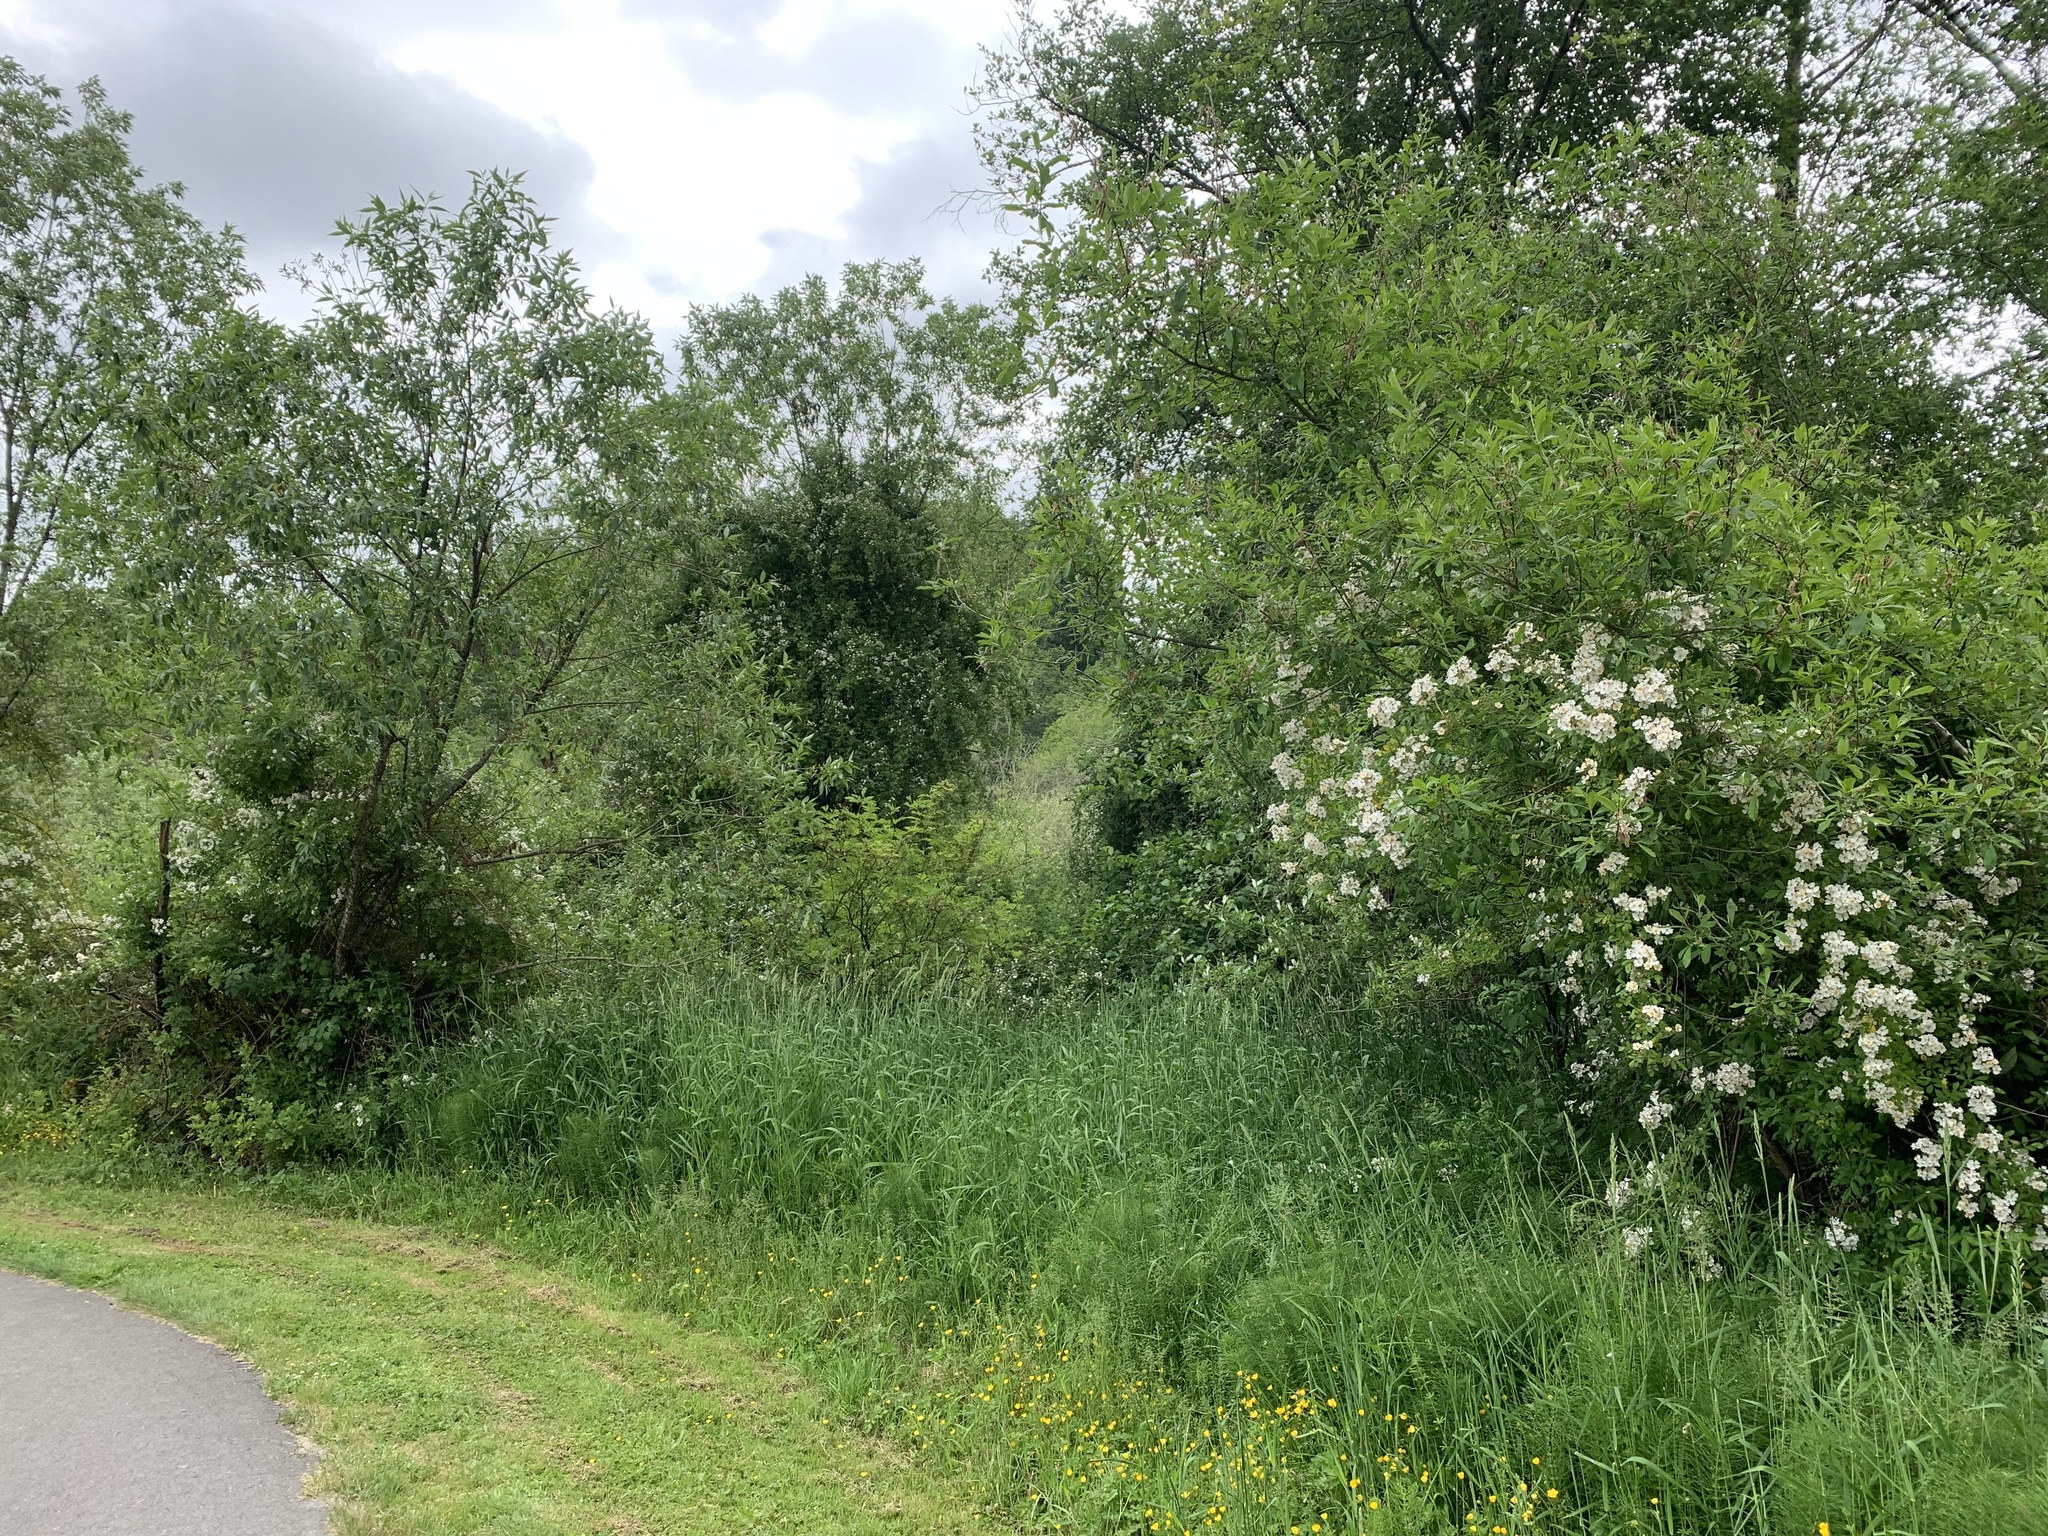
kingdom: Plantae
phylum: Tracheophyta
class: Magnoliopsida
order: Rosales
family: Rosaceae
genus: Rosa
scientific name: Rosa multiflora
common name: Multiflora rose
